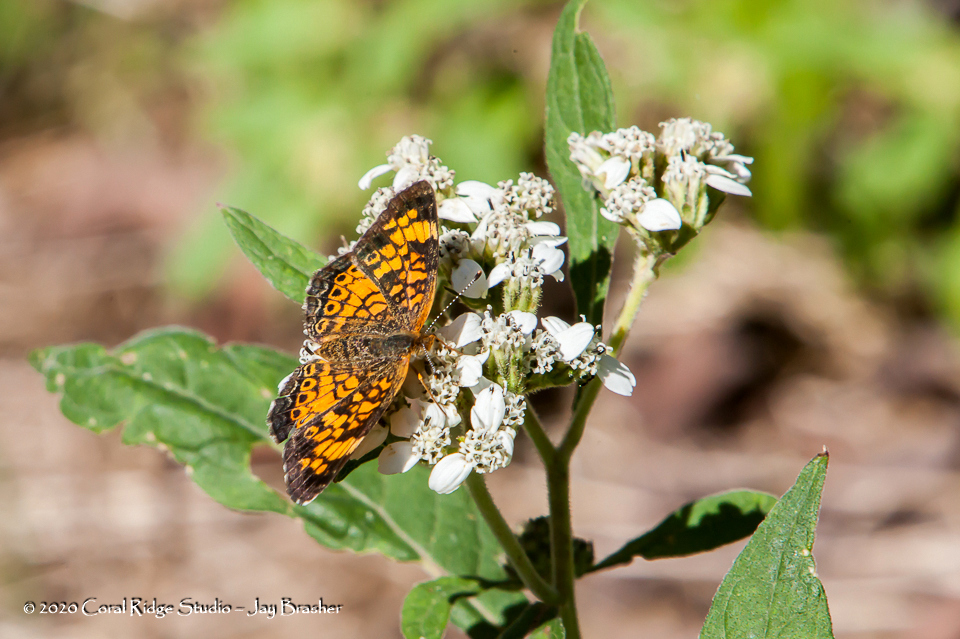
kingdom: Animalia
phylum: Arthropoda
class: Insecta
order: Lepidoptera
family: Nymphalidae
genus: Phyciodes
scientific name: Phyciodes tharos
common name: Pearl crescent
